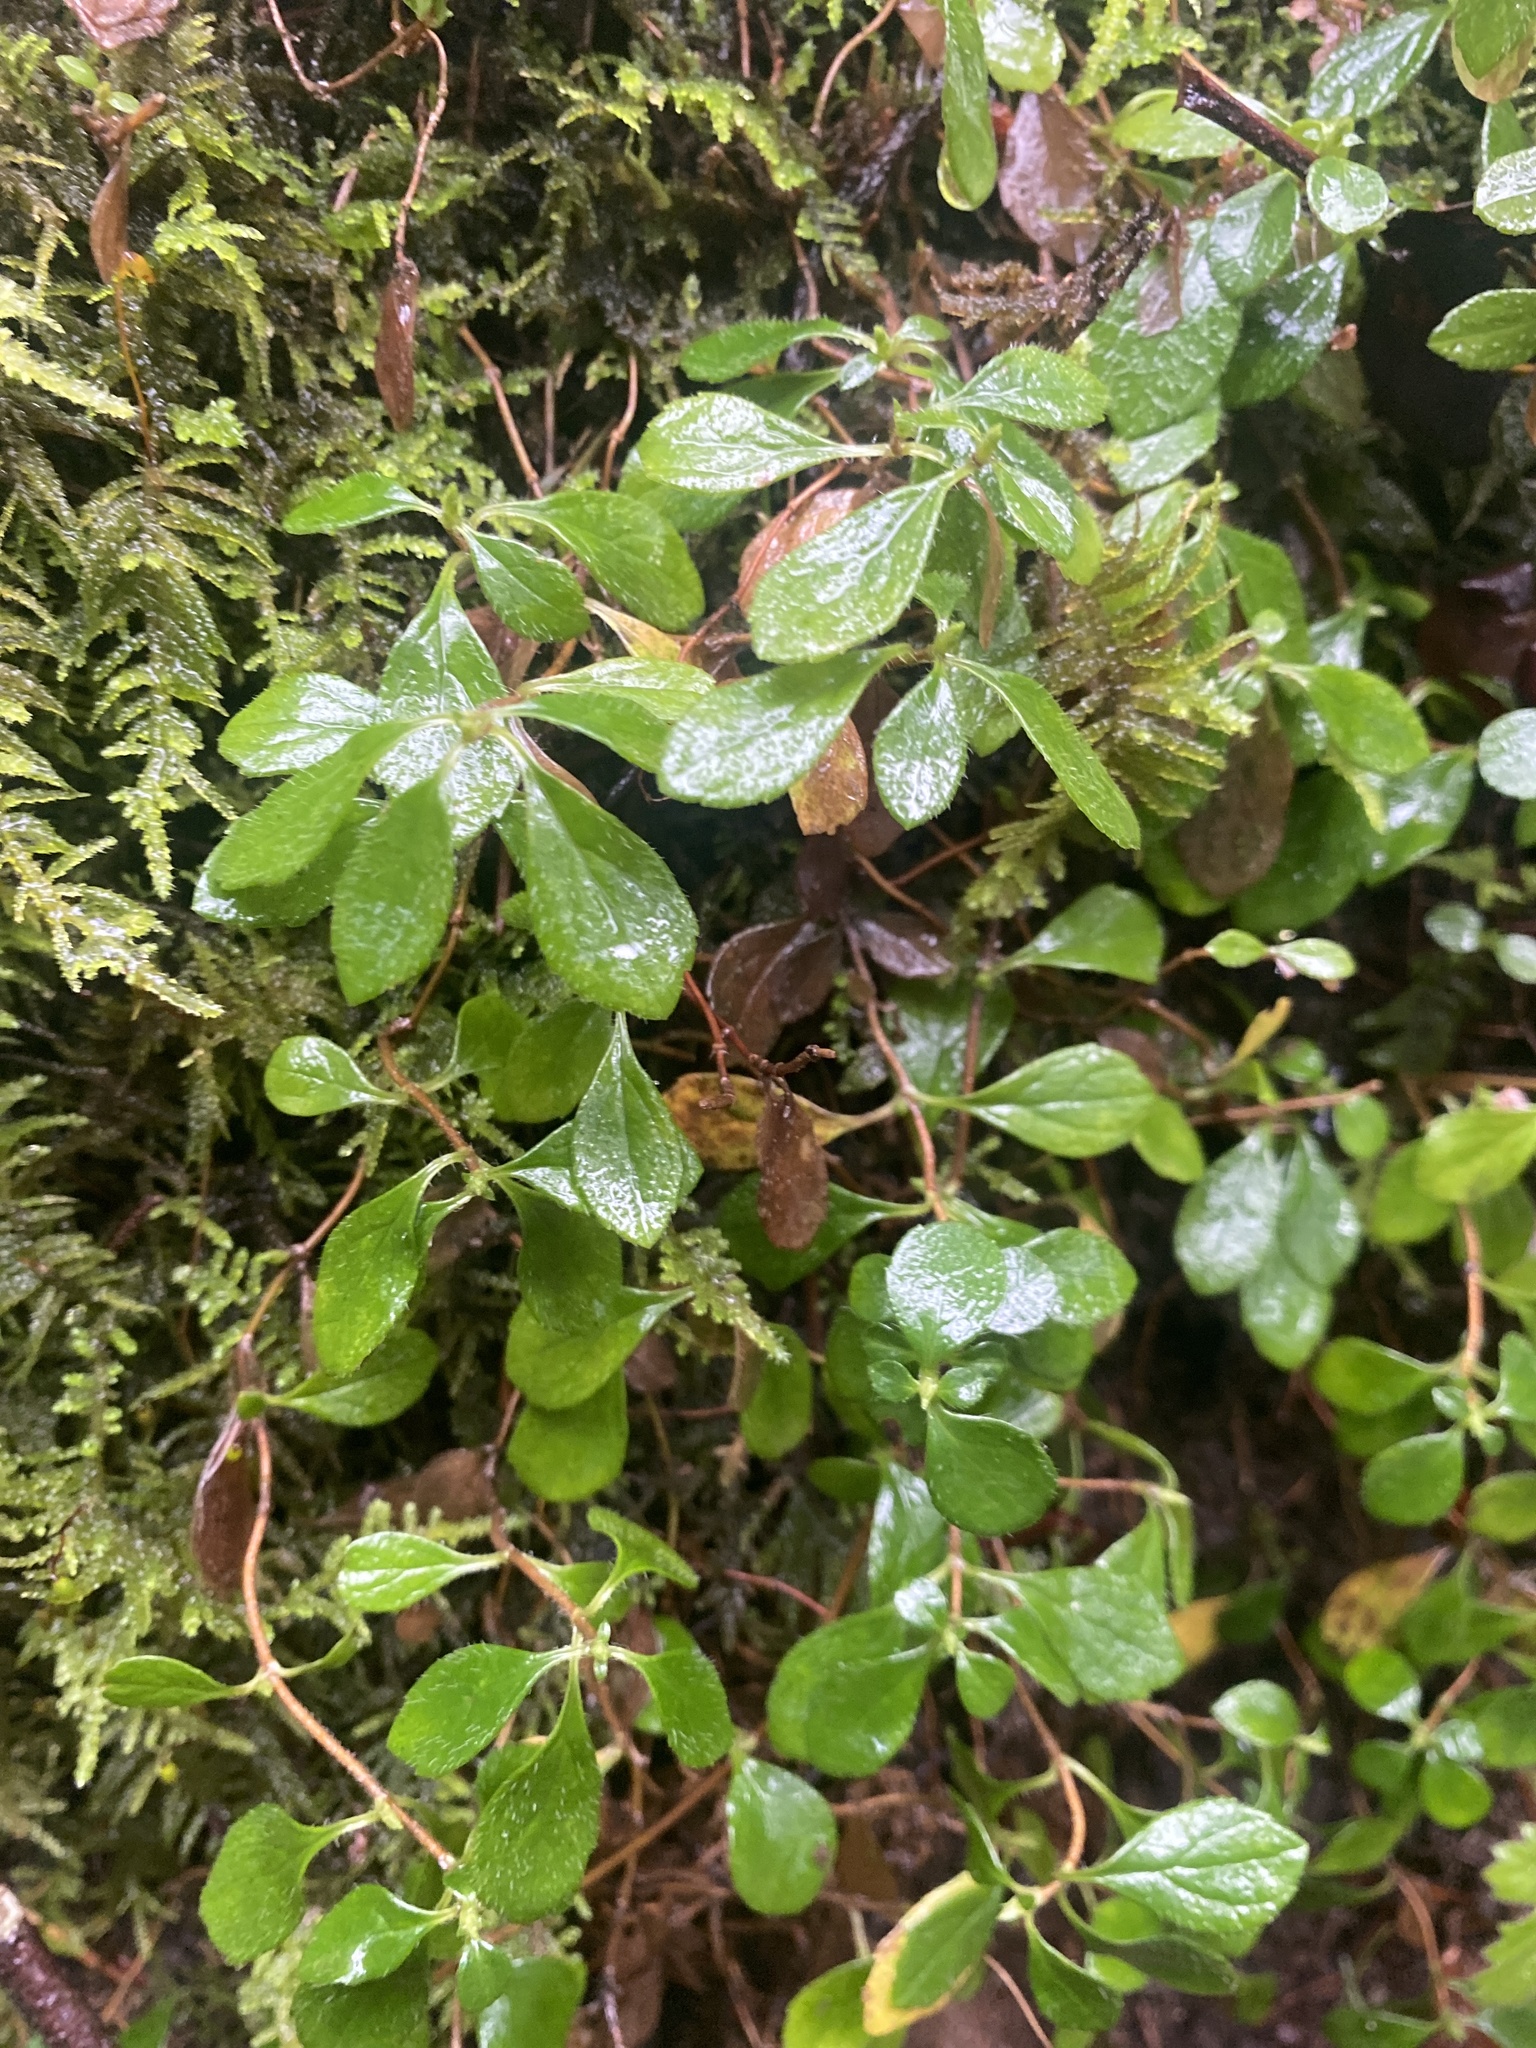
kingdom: Plantae
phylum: Tracheophyta
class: Magnoliopsida
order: Dipsacales
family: Caprifoliaceae
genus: Linnaea
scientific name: Linnaea borealis
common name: Twinflower
